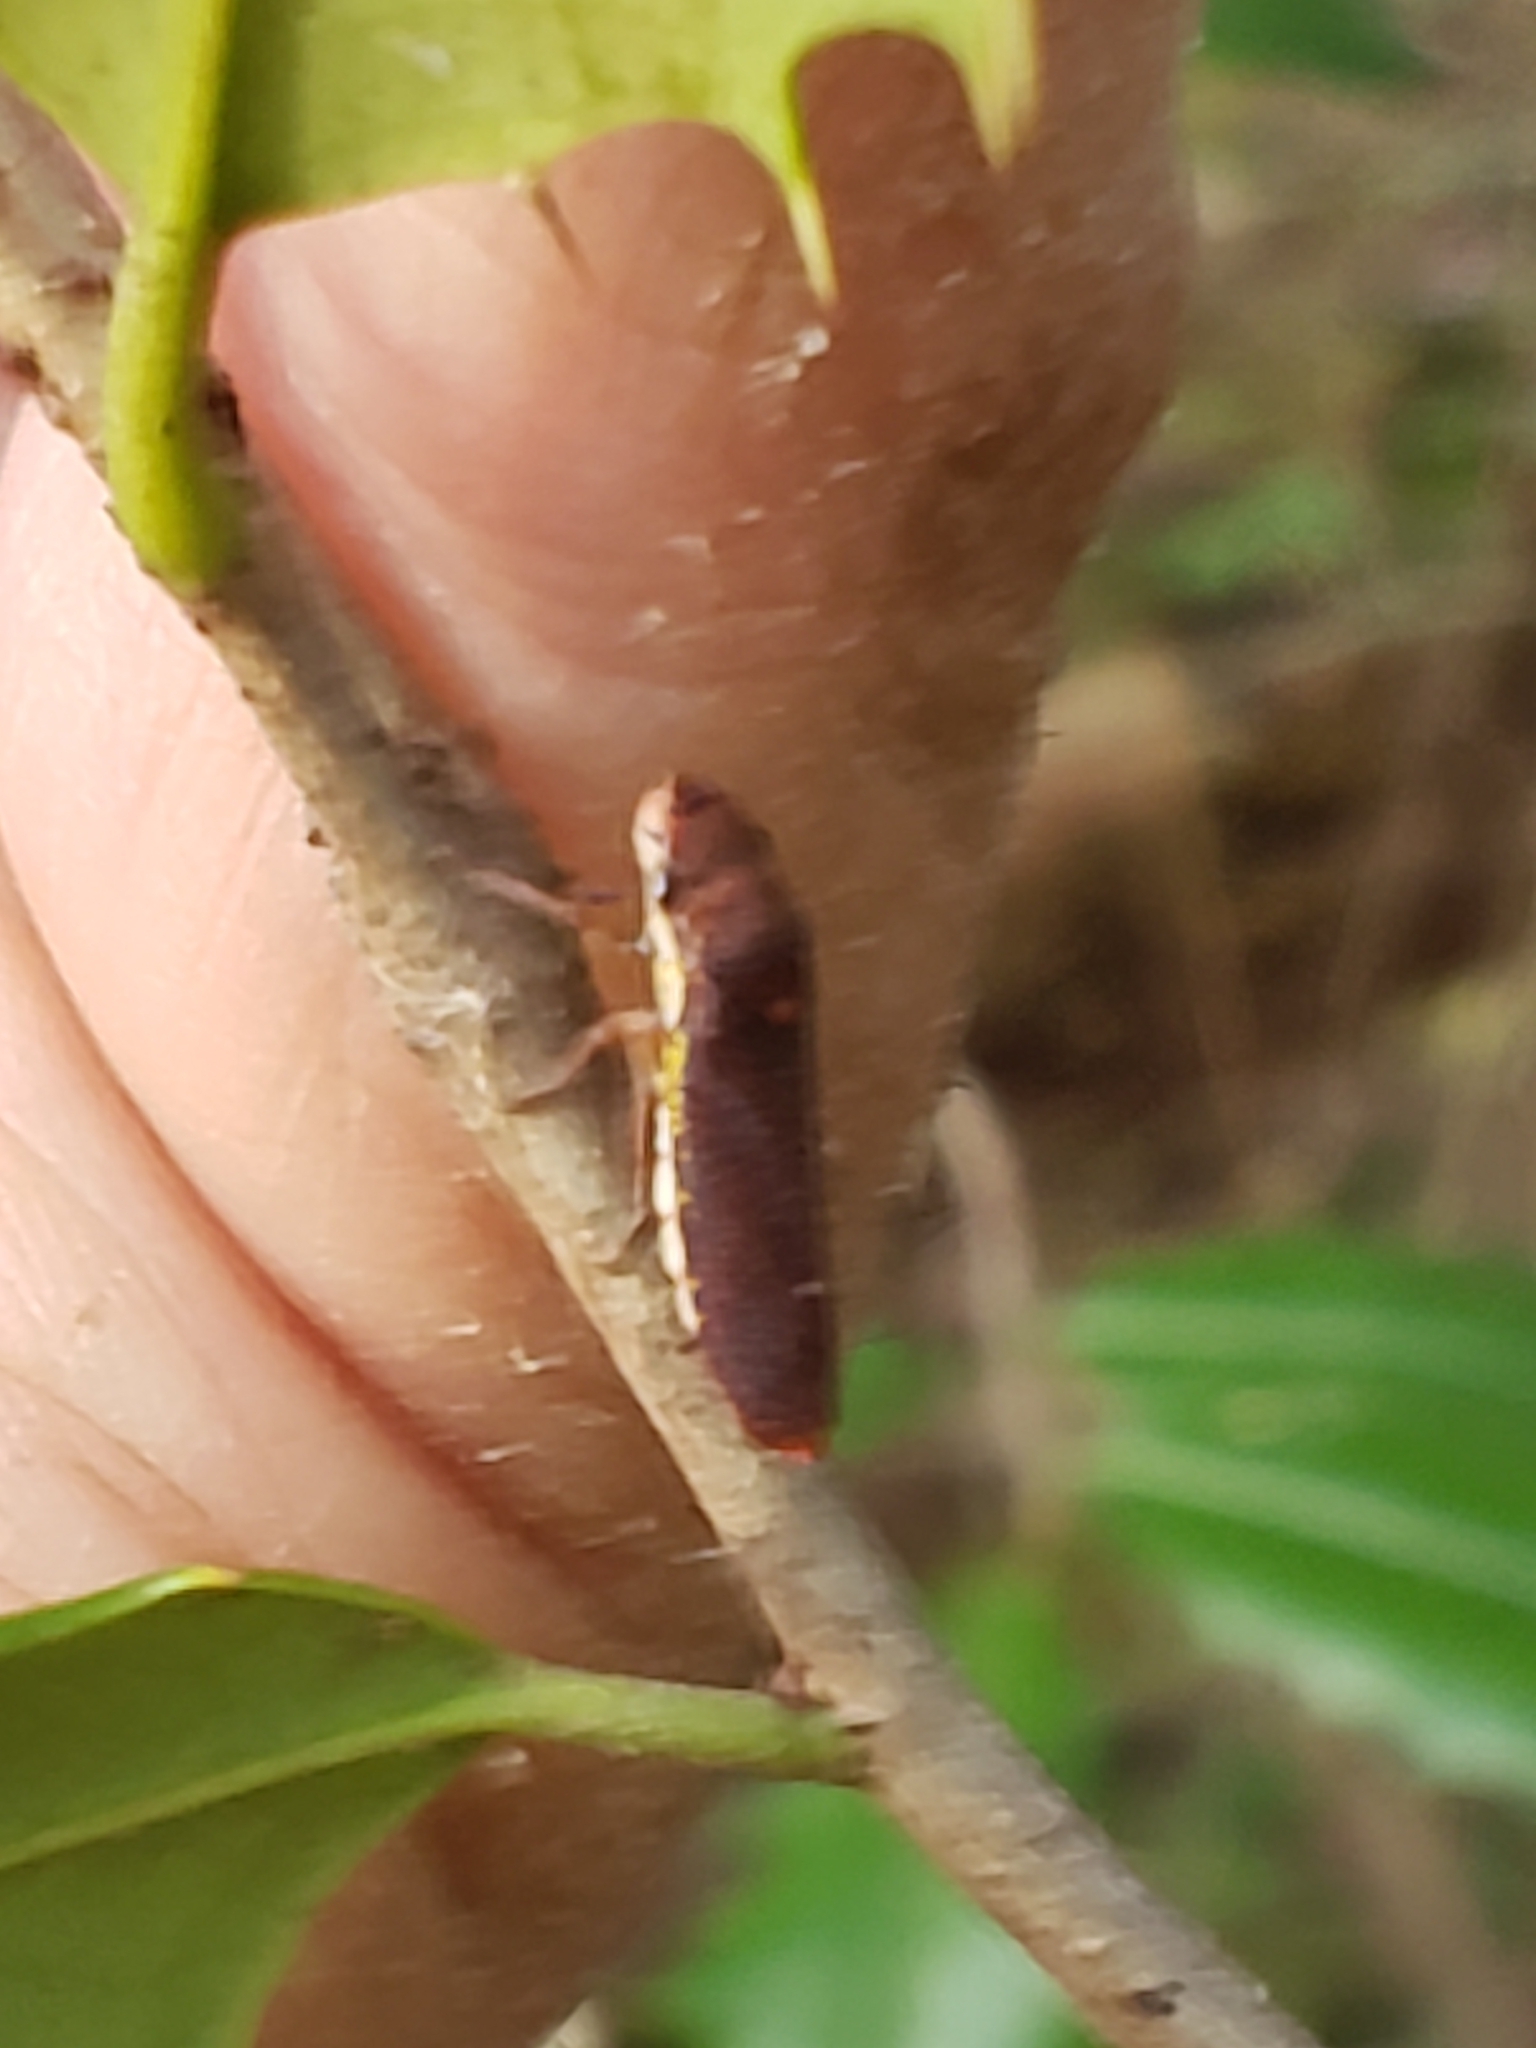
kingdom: Animalia
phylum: Arthropoda
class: Insecta
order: Hemiptera
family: Cicadellidae
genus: Paraulacizes
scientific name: Paraulacizes irrorata
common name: Speckled sharpshooter
